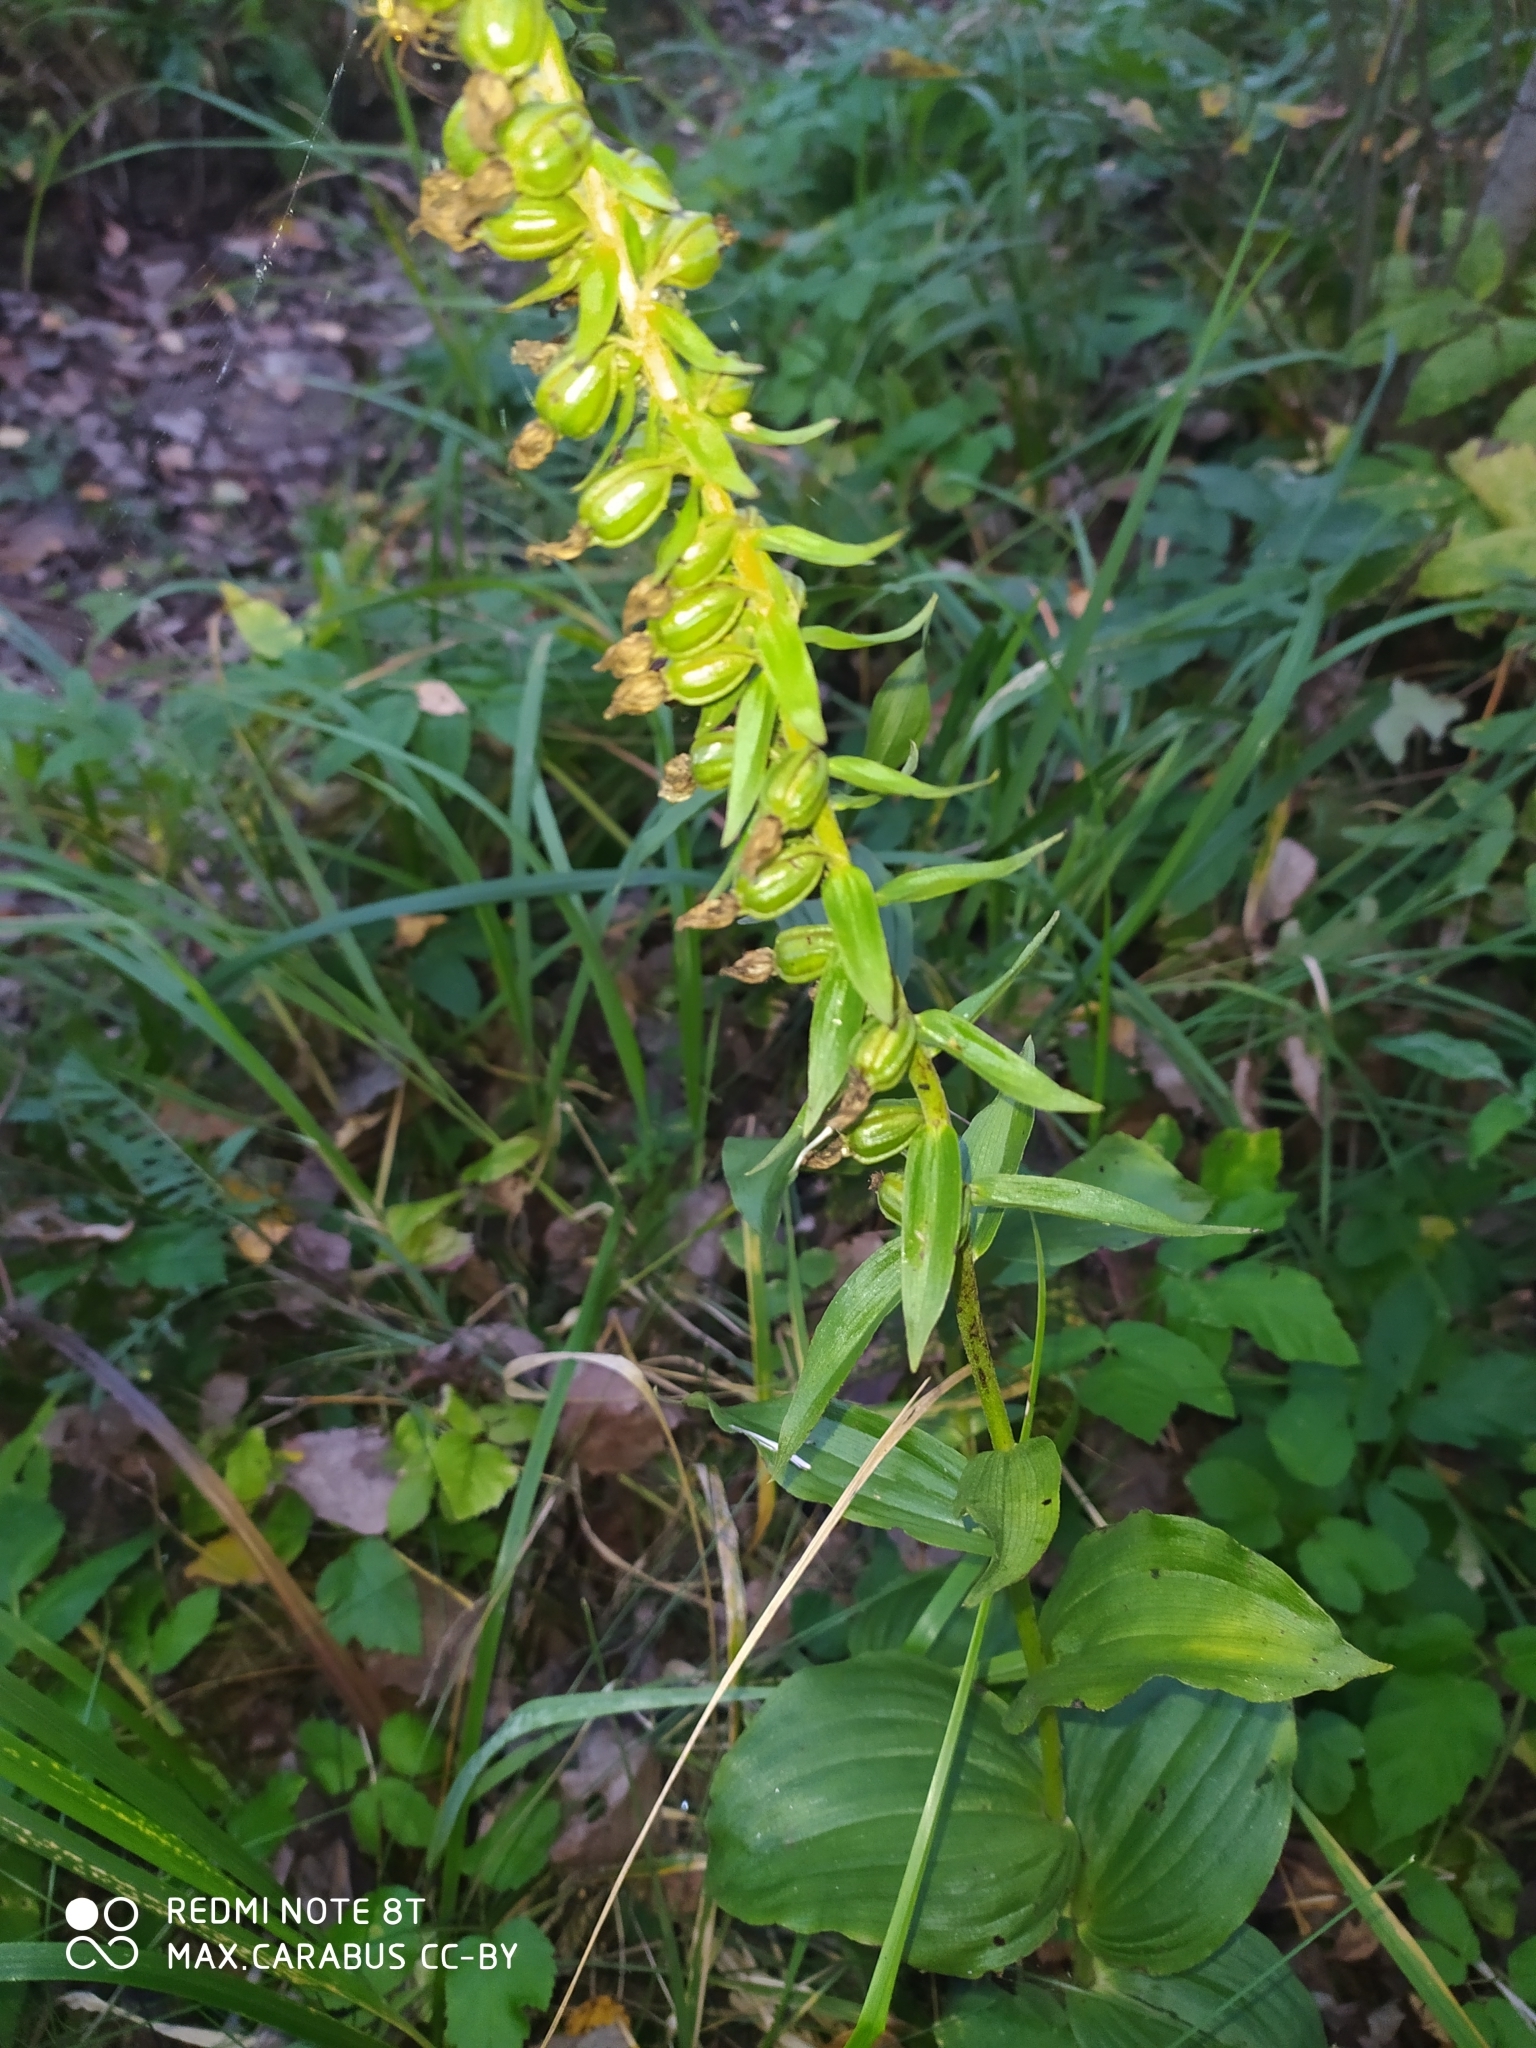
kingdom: Plantae
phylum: Tracheophyta
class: Liliopsida
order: Asparagales
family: Orchidaceae
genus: Epipactis
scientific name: Epipactis helleborine
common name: Broad-leaved helleborine
